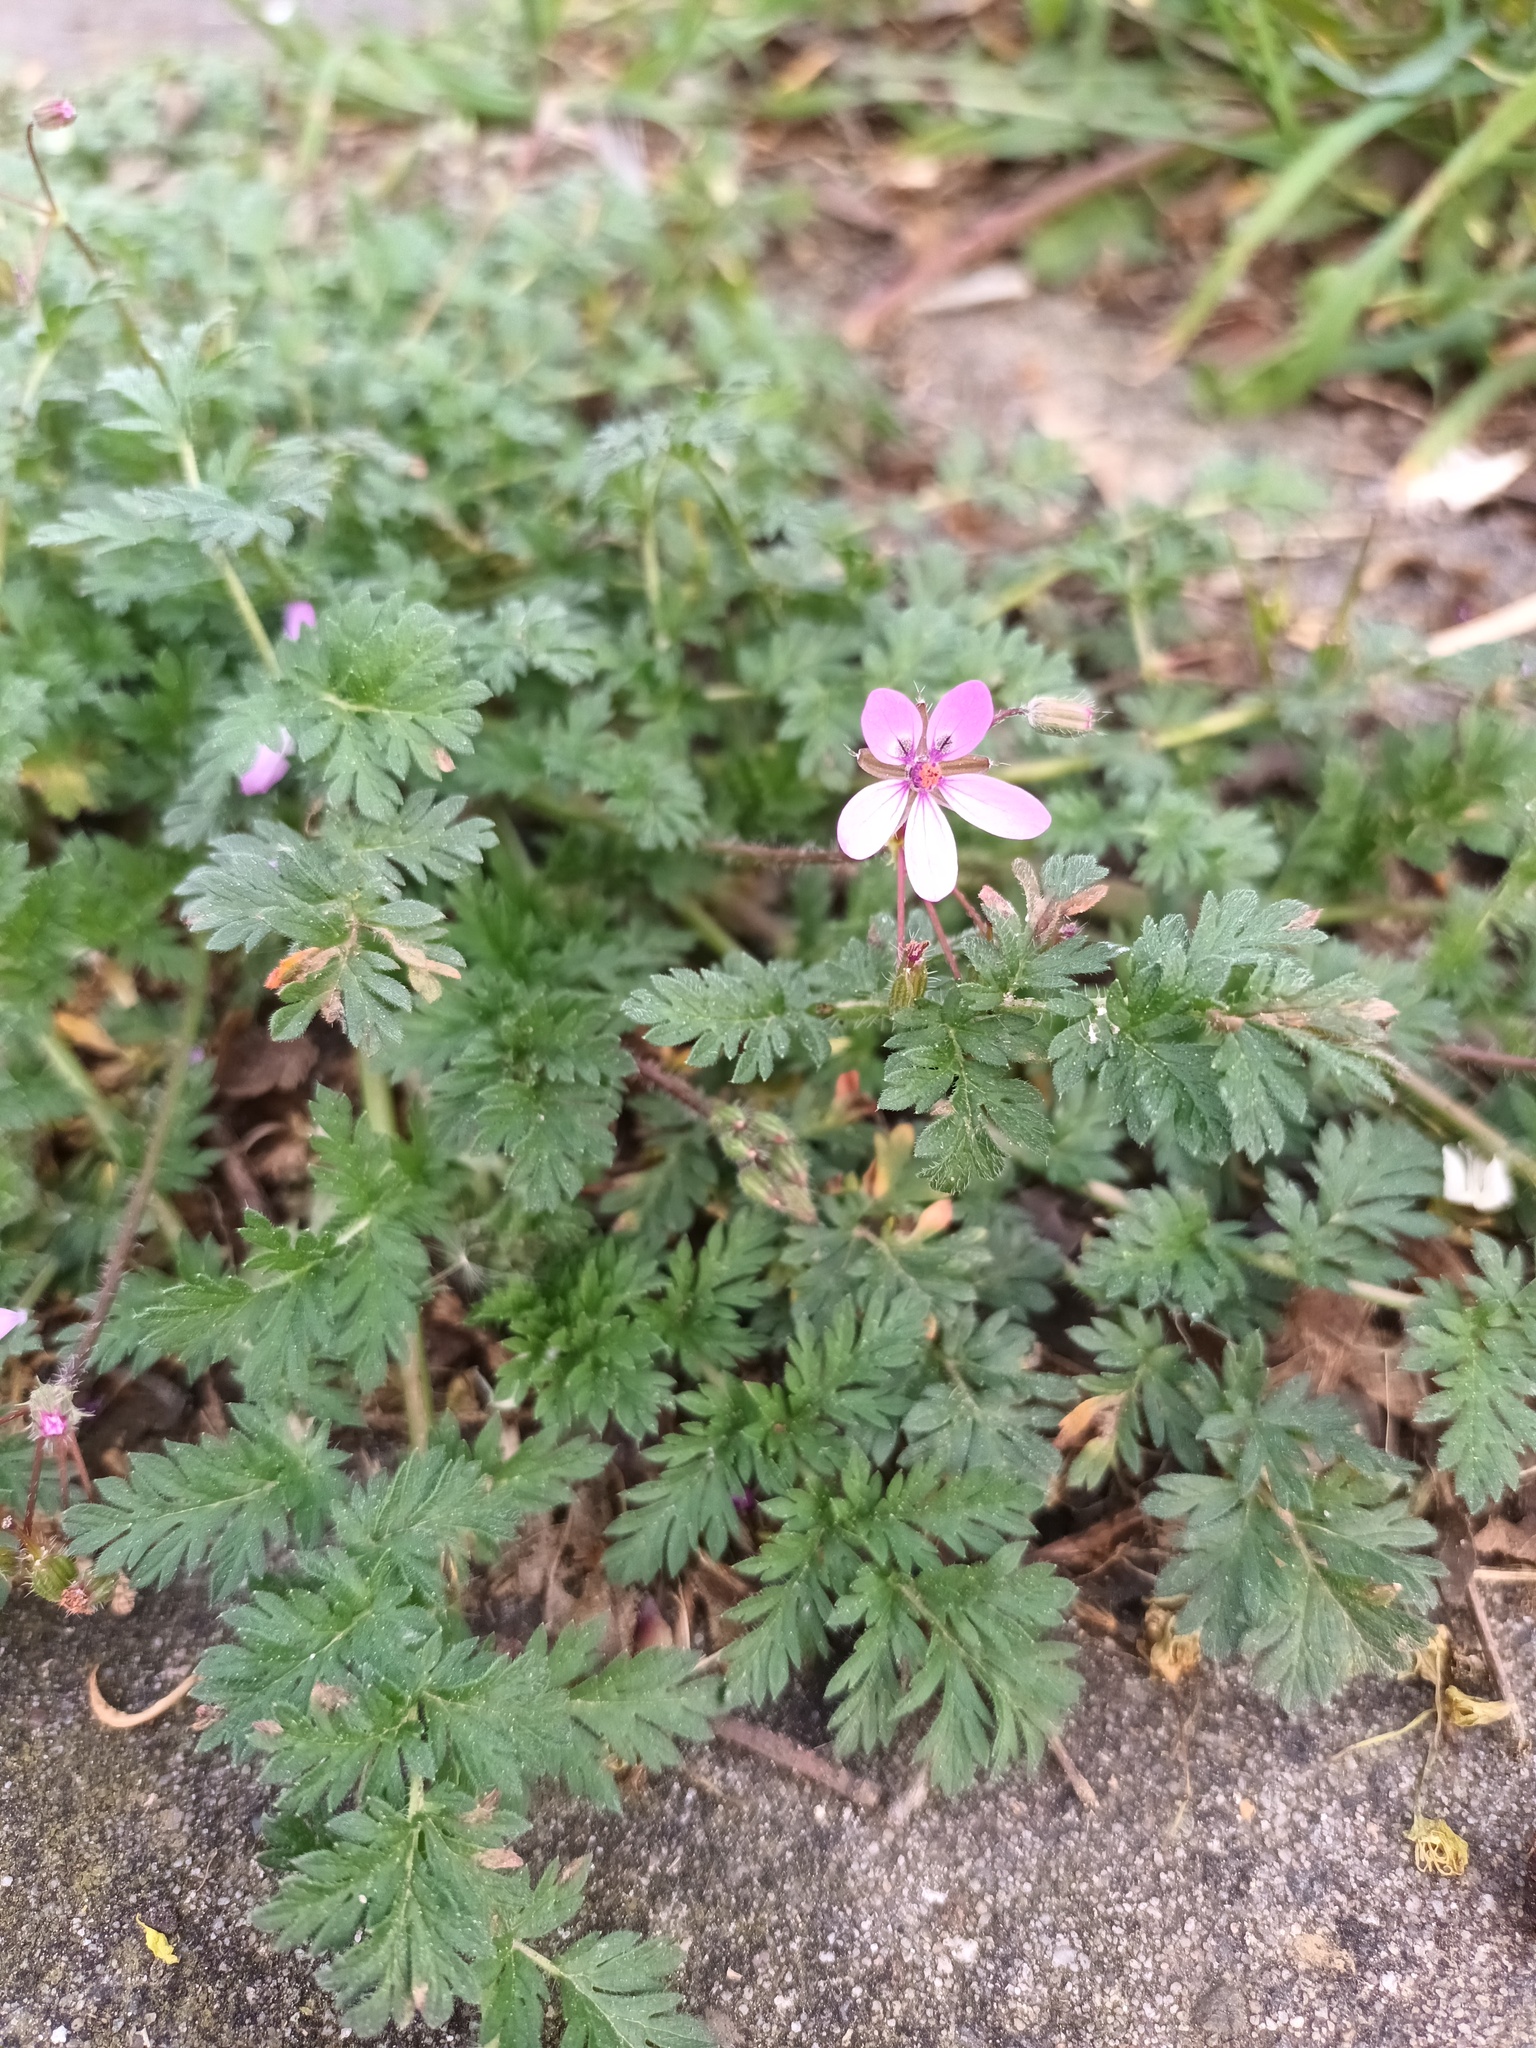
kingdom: Plantae
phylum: Tracheophyta
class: Magnoliopsida
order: Geraniales
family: Geraniaceae
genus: Erodium
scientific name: Erodium cicutarium
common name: Common stork's-bill
